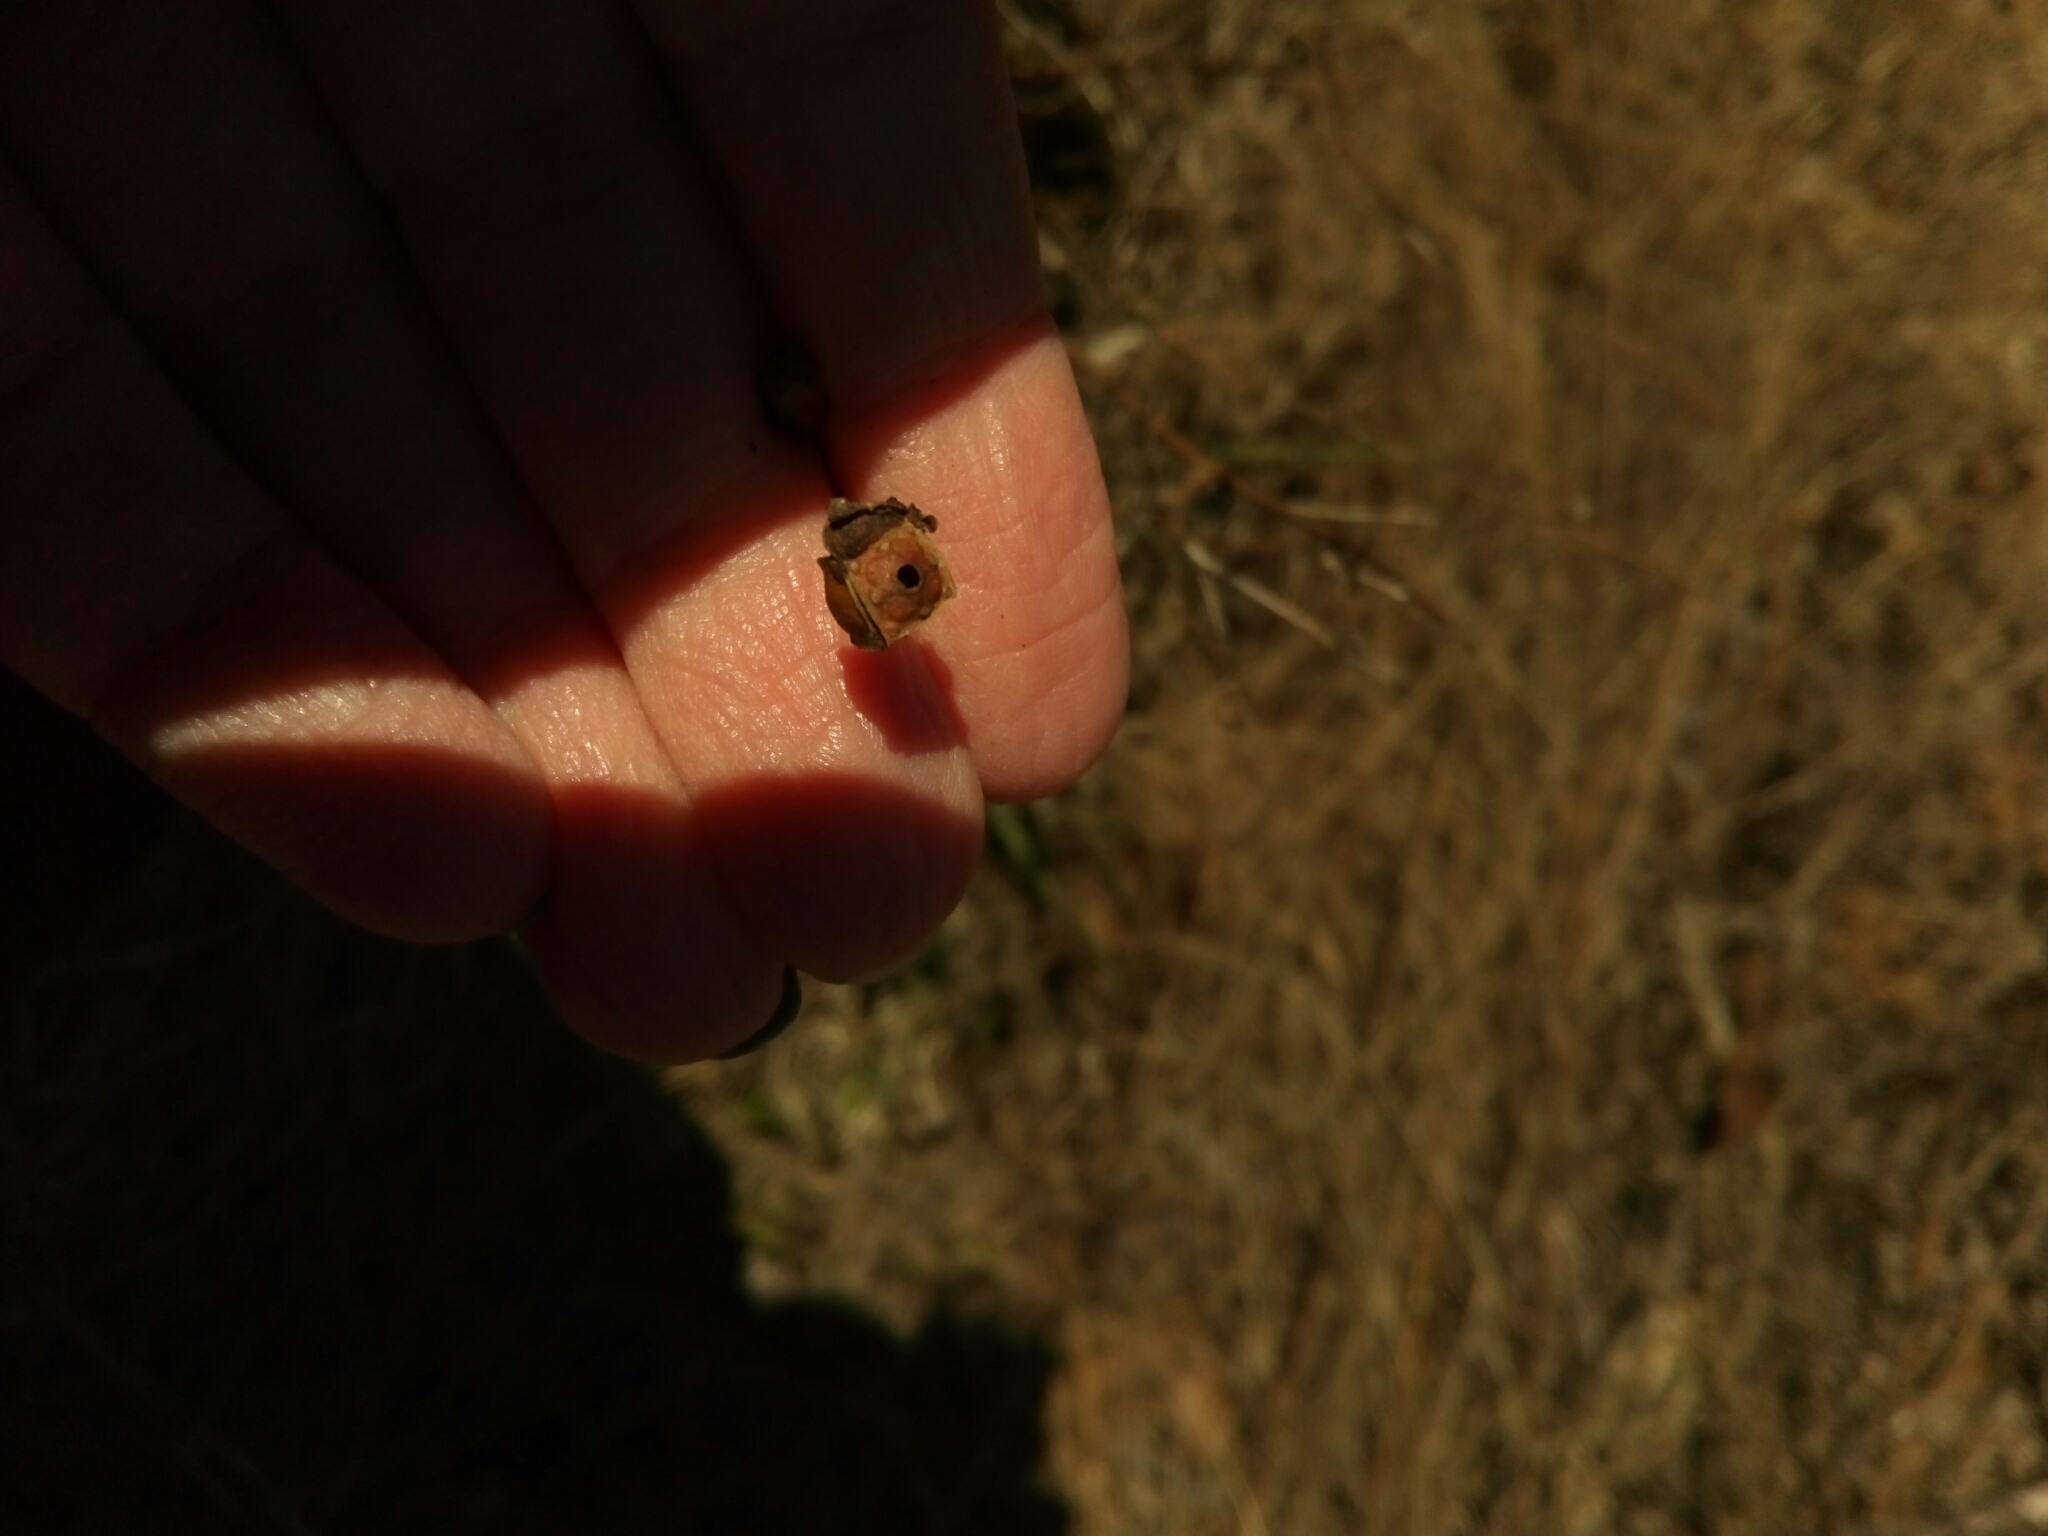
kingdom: Plantae
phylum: Tracheophyta
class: Magnoliopsida
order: Myrtales
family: Onagraceae
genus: Ludwigia
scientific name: Ludwigia alternifolia
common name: Rattlebox
